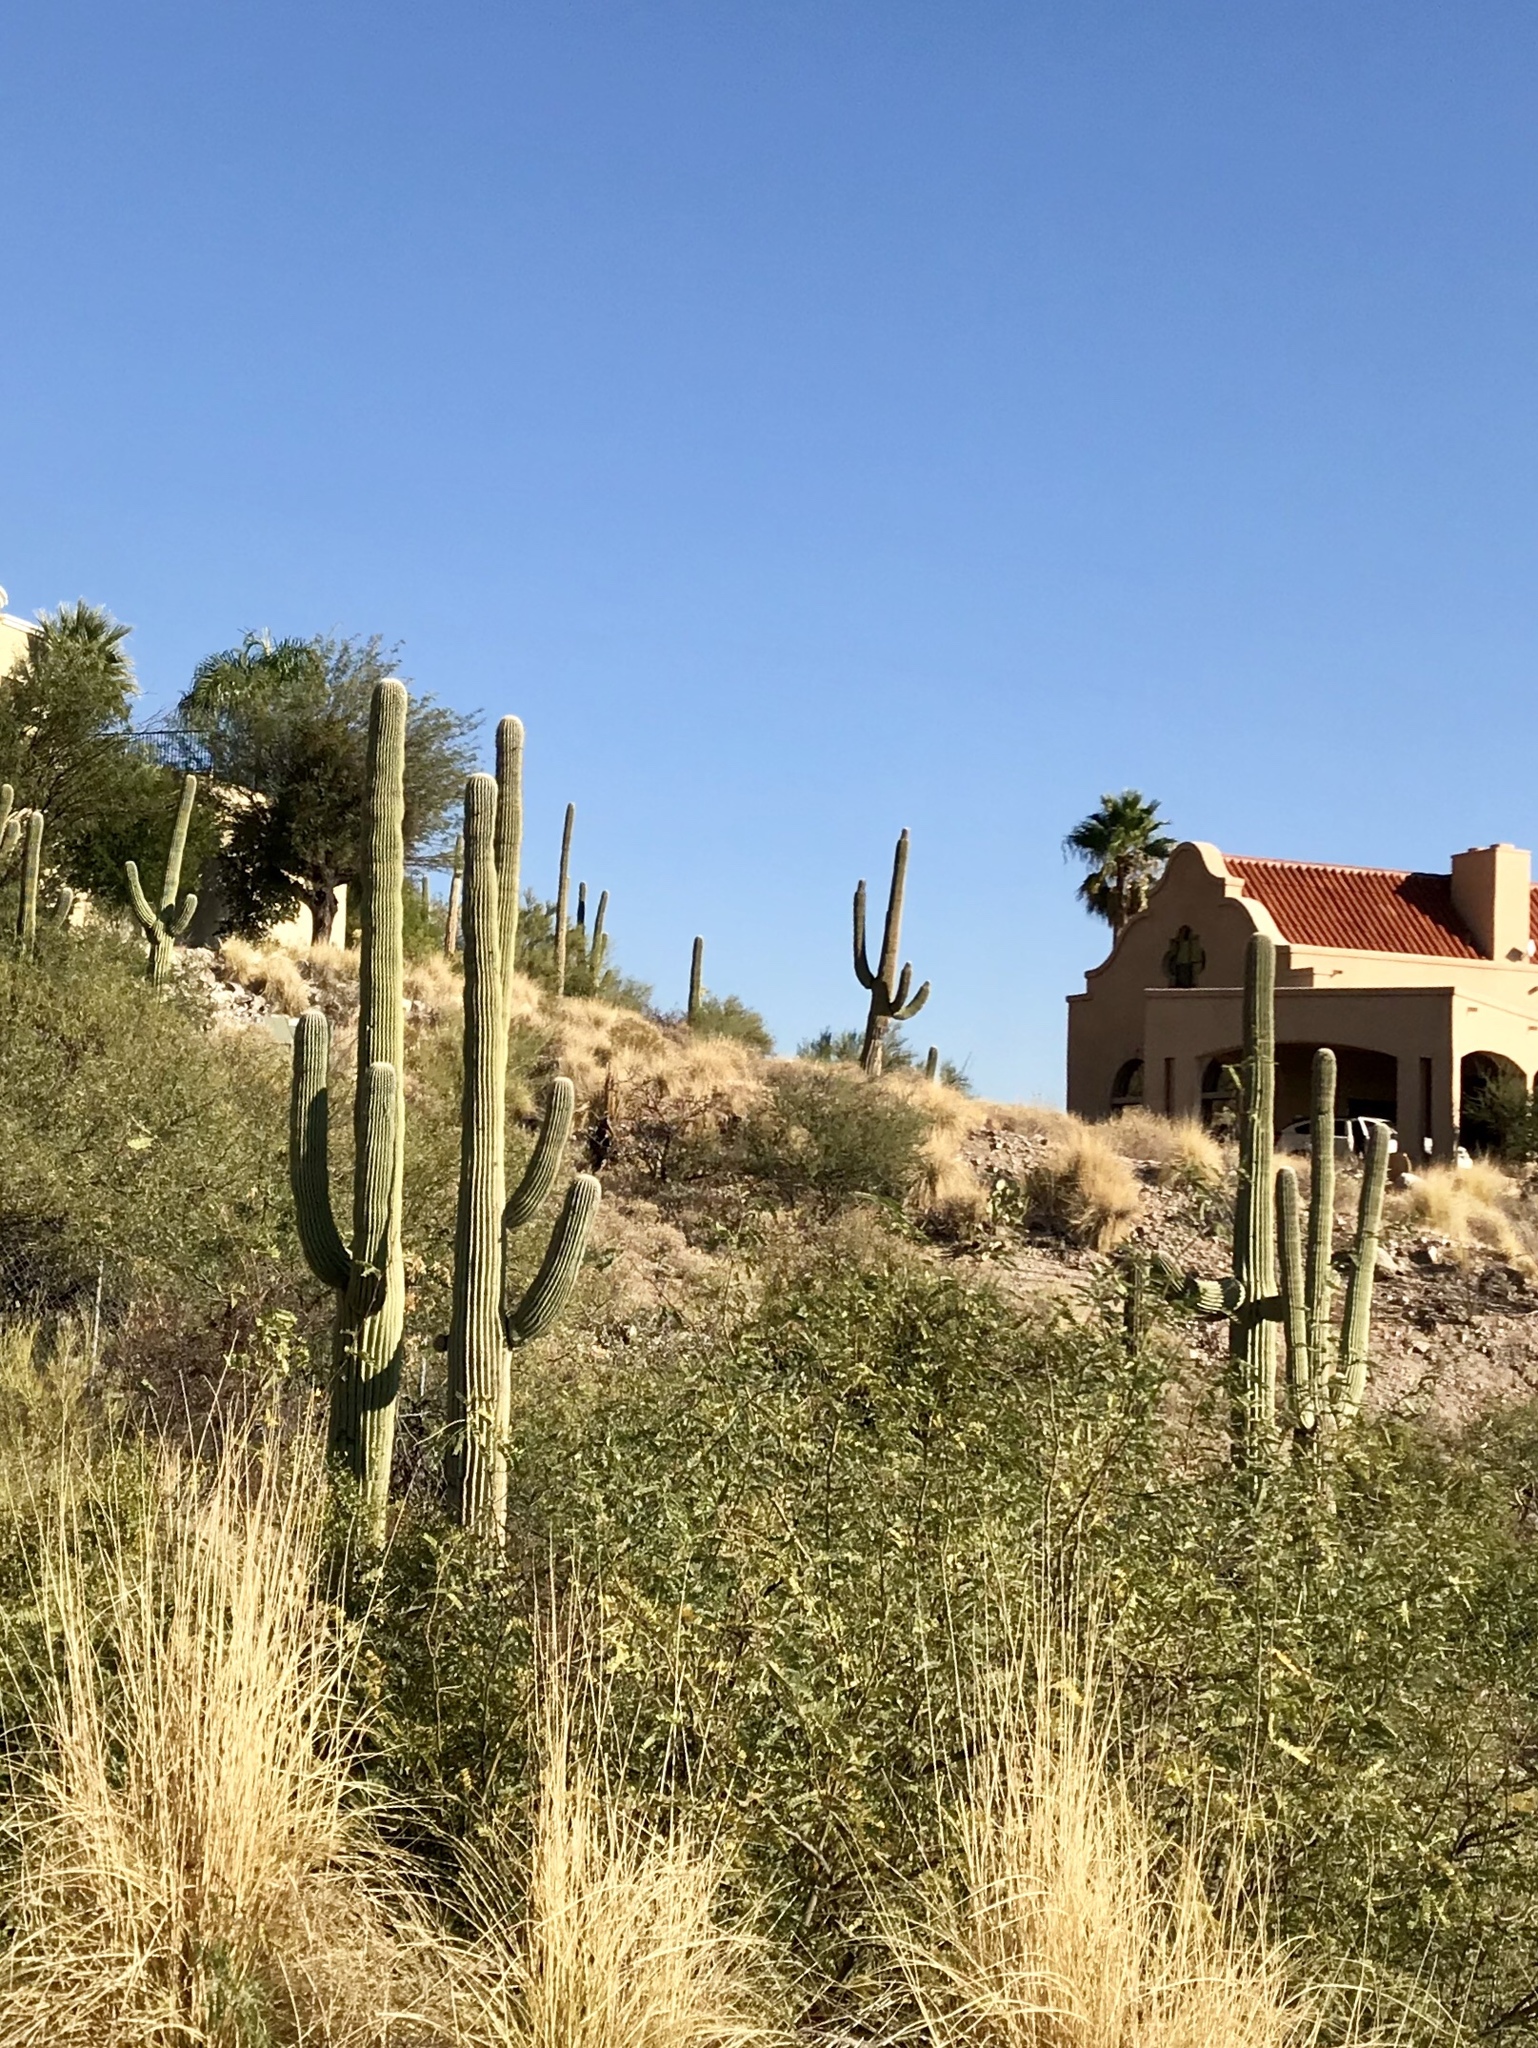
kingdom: Plantae
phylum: Tracheophyta
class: Magnoliopsida
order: Caryophyllales
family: Cactaceae
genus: Carnegiea
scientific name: Carnegiea gigantea
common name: Saguaro
